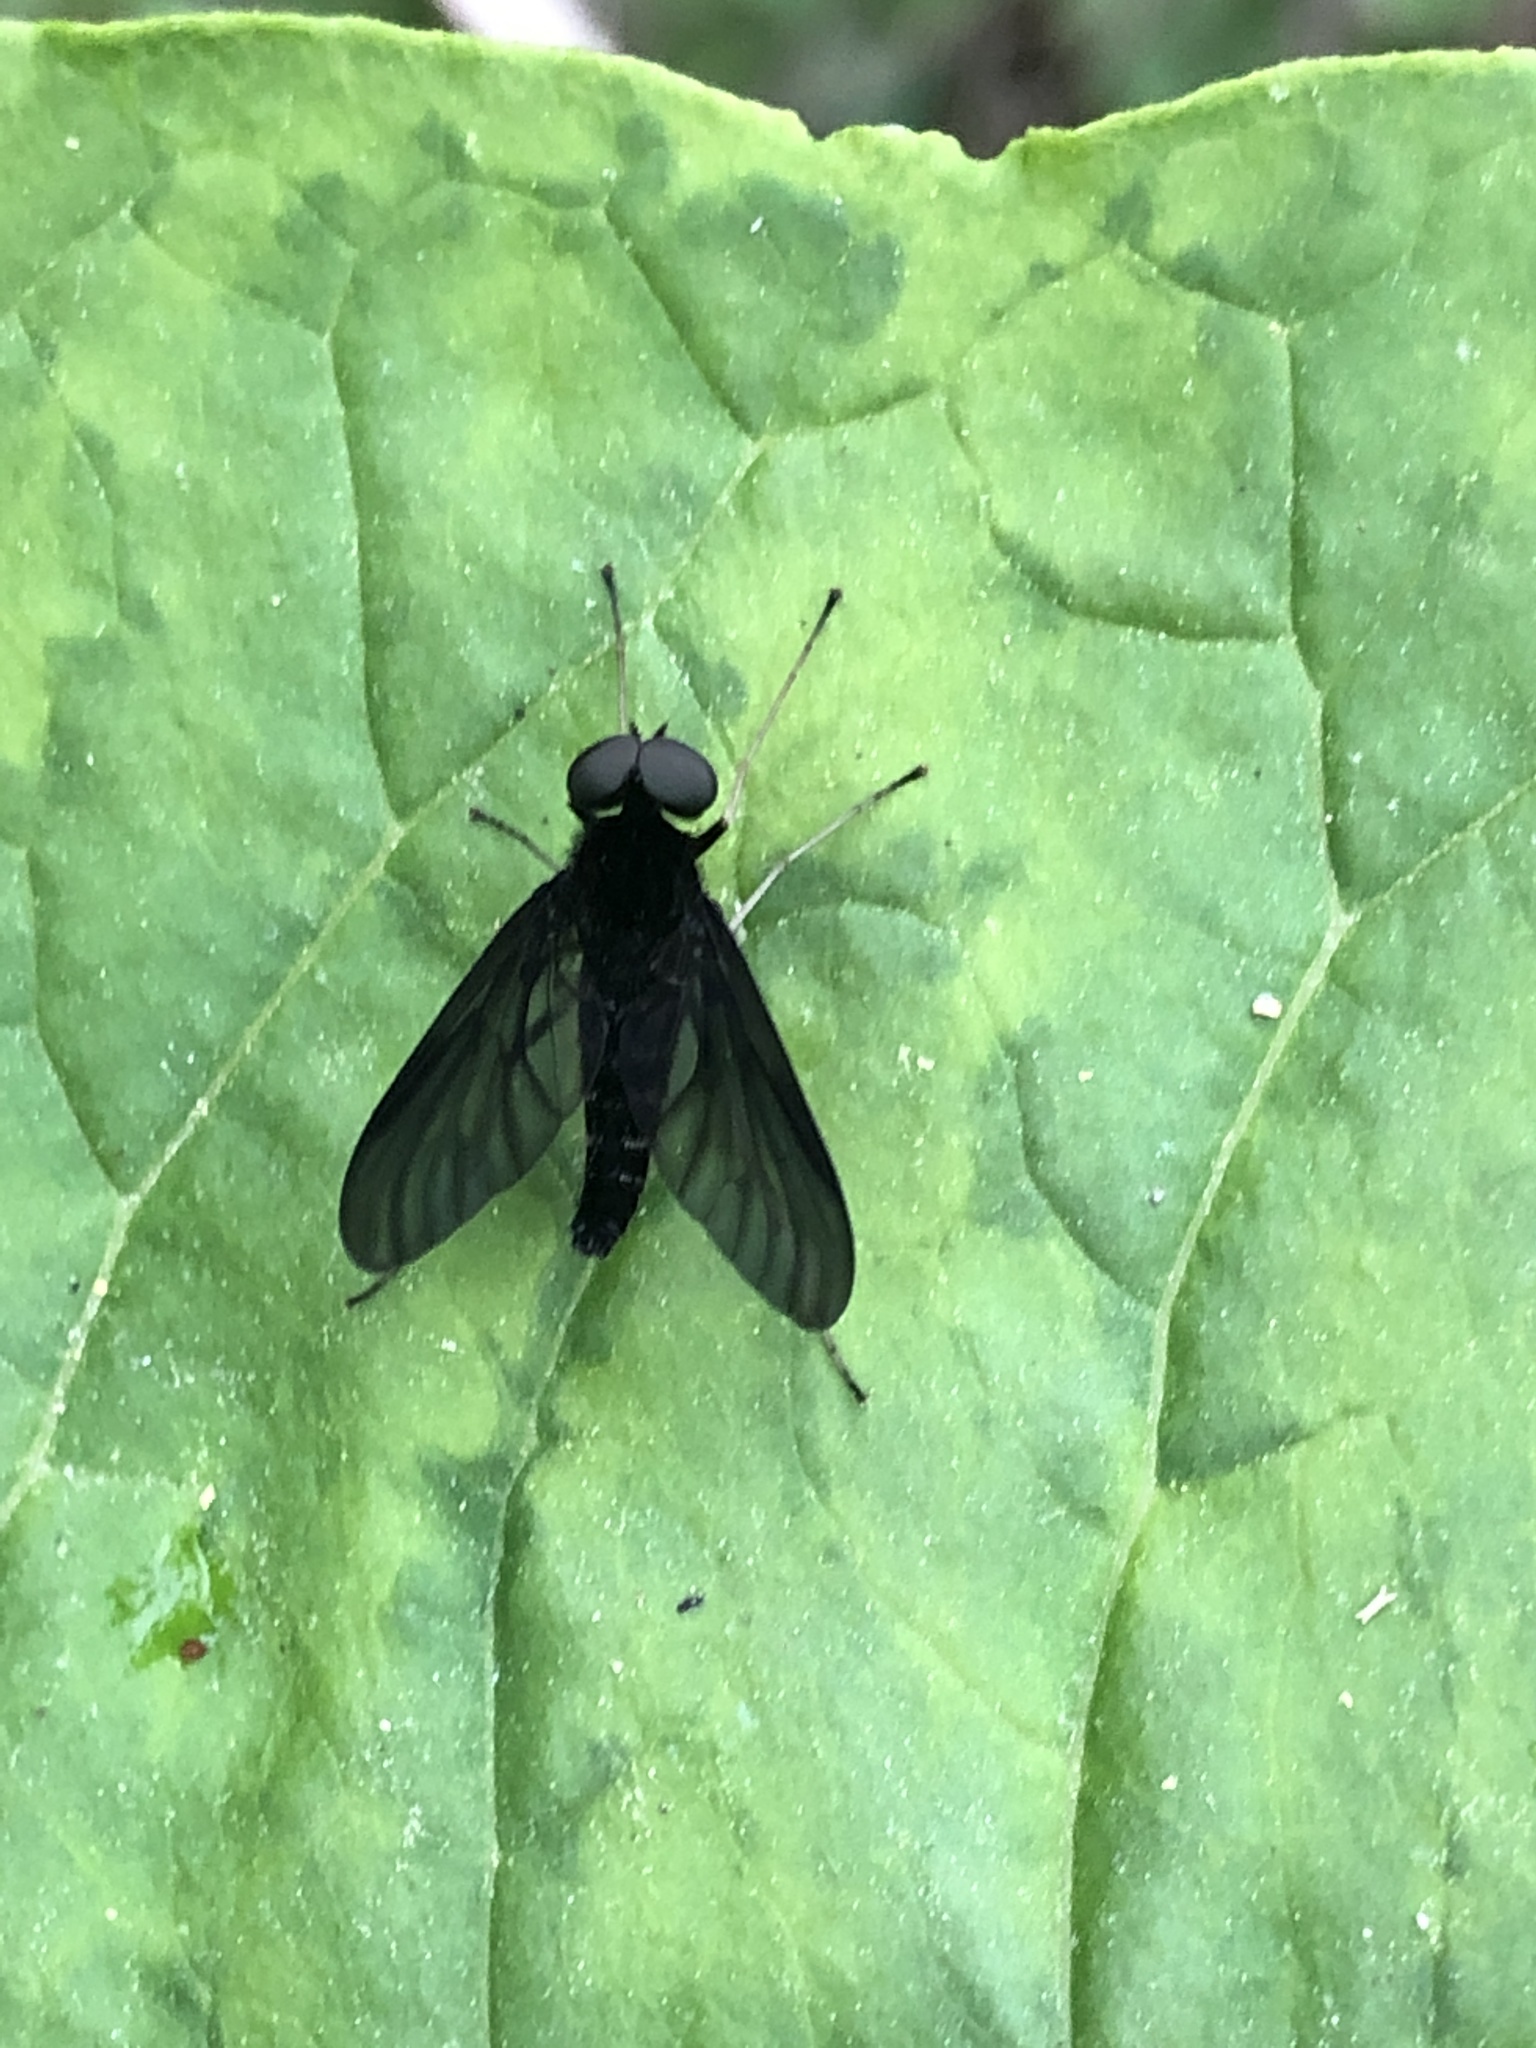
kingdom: Animalia
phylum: Arthropoda
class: Insecta
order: Diptera
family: Rhagionidae
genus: Chrysopilus
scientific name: Chrysopilus connexus
